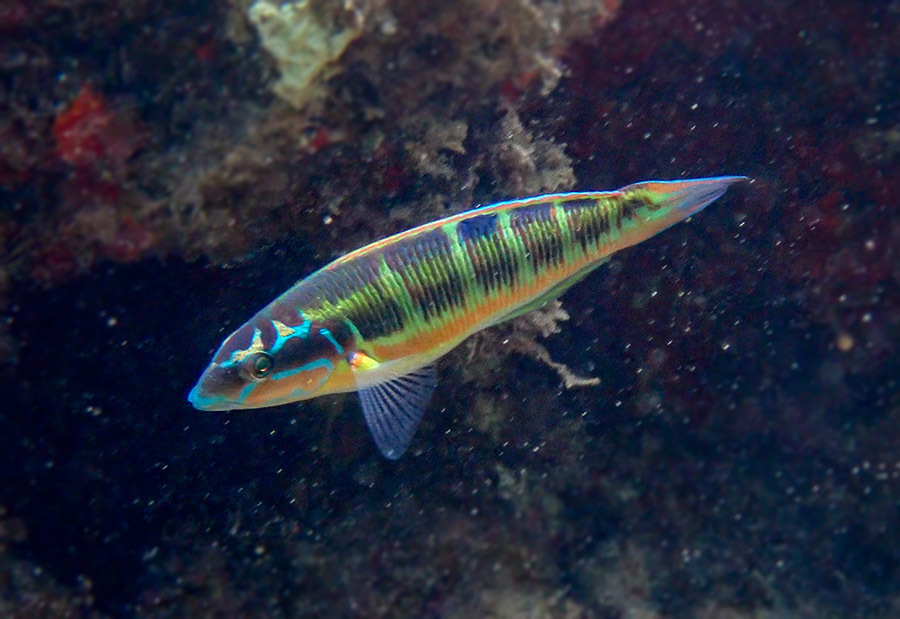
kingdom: Animalia
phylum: Chordata
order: Perciformes
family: Labridae
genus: Thalassoma
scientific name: Thalassoma pavo
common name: Ornate wrasse
